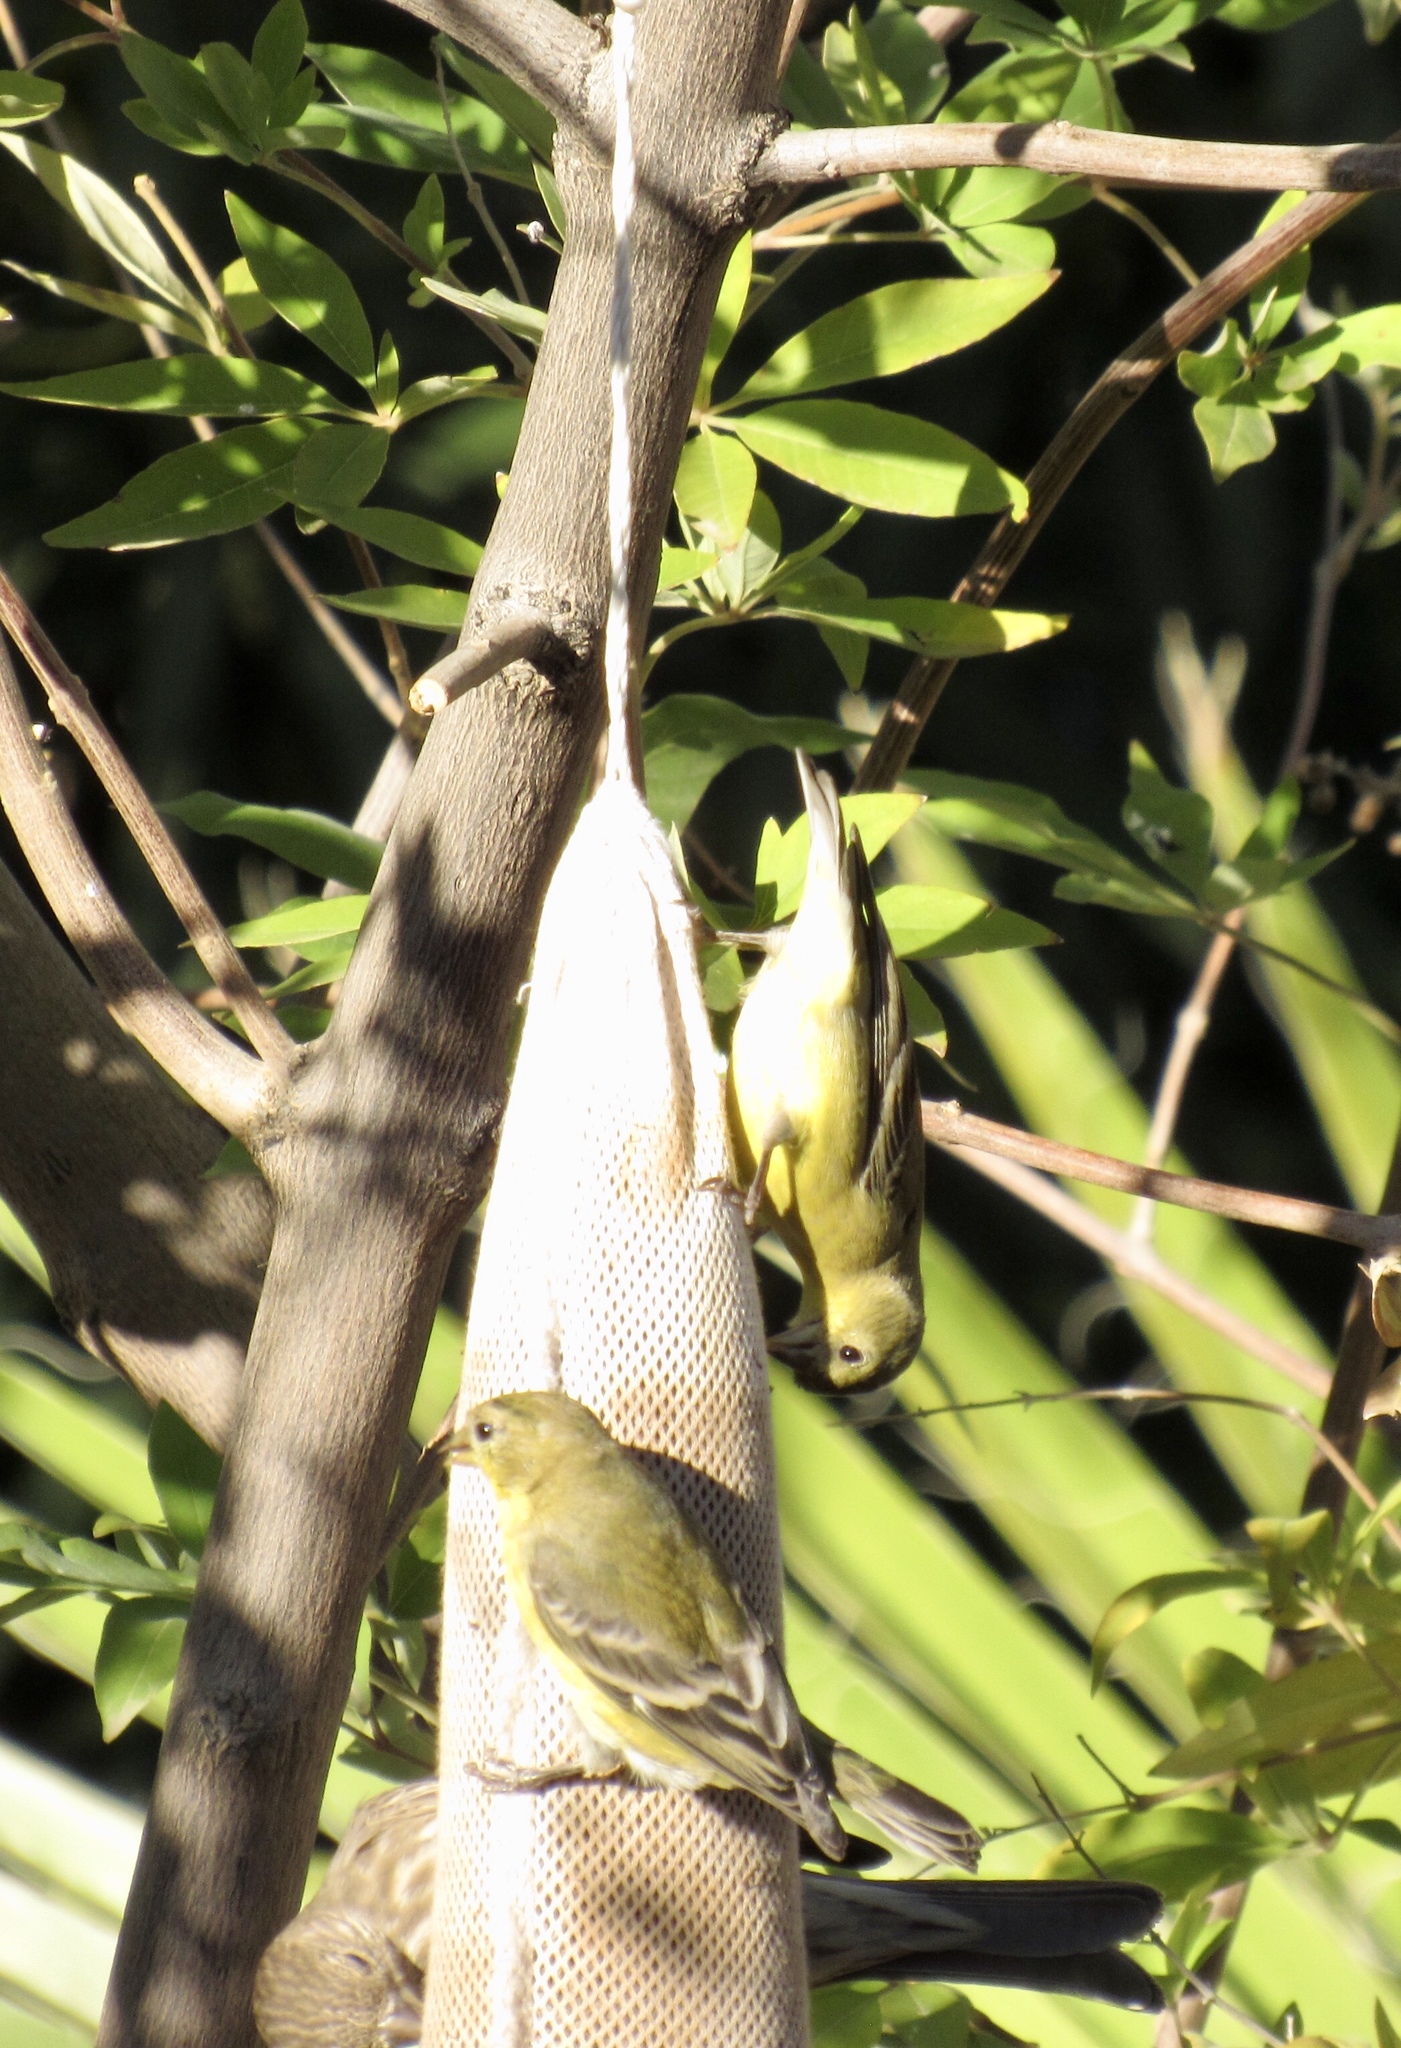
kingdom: Animalia
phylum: Chordata
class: Aves
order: Passeriformes
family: Fringillidae
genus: Spinus
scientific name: Spinus psaltria
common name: Lesser goldfinch
